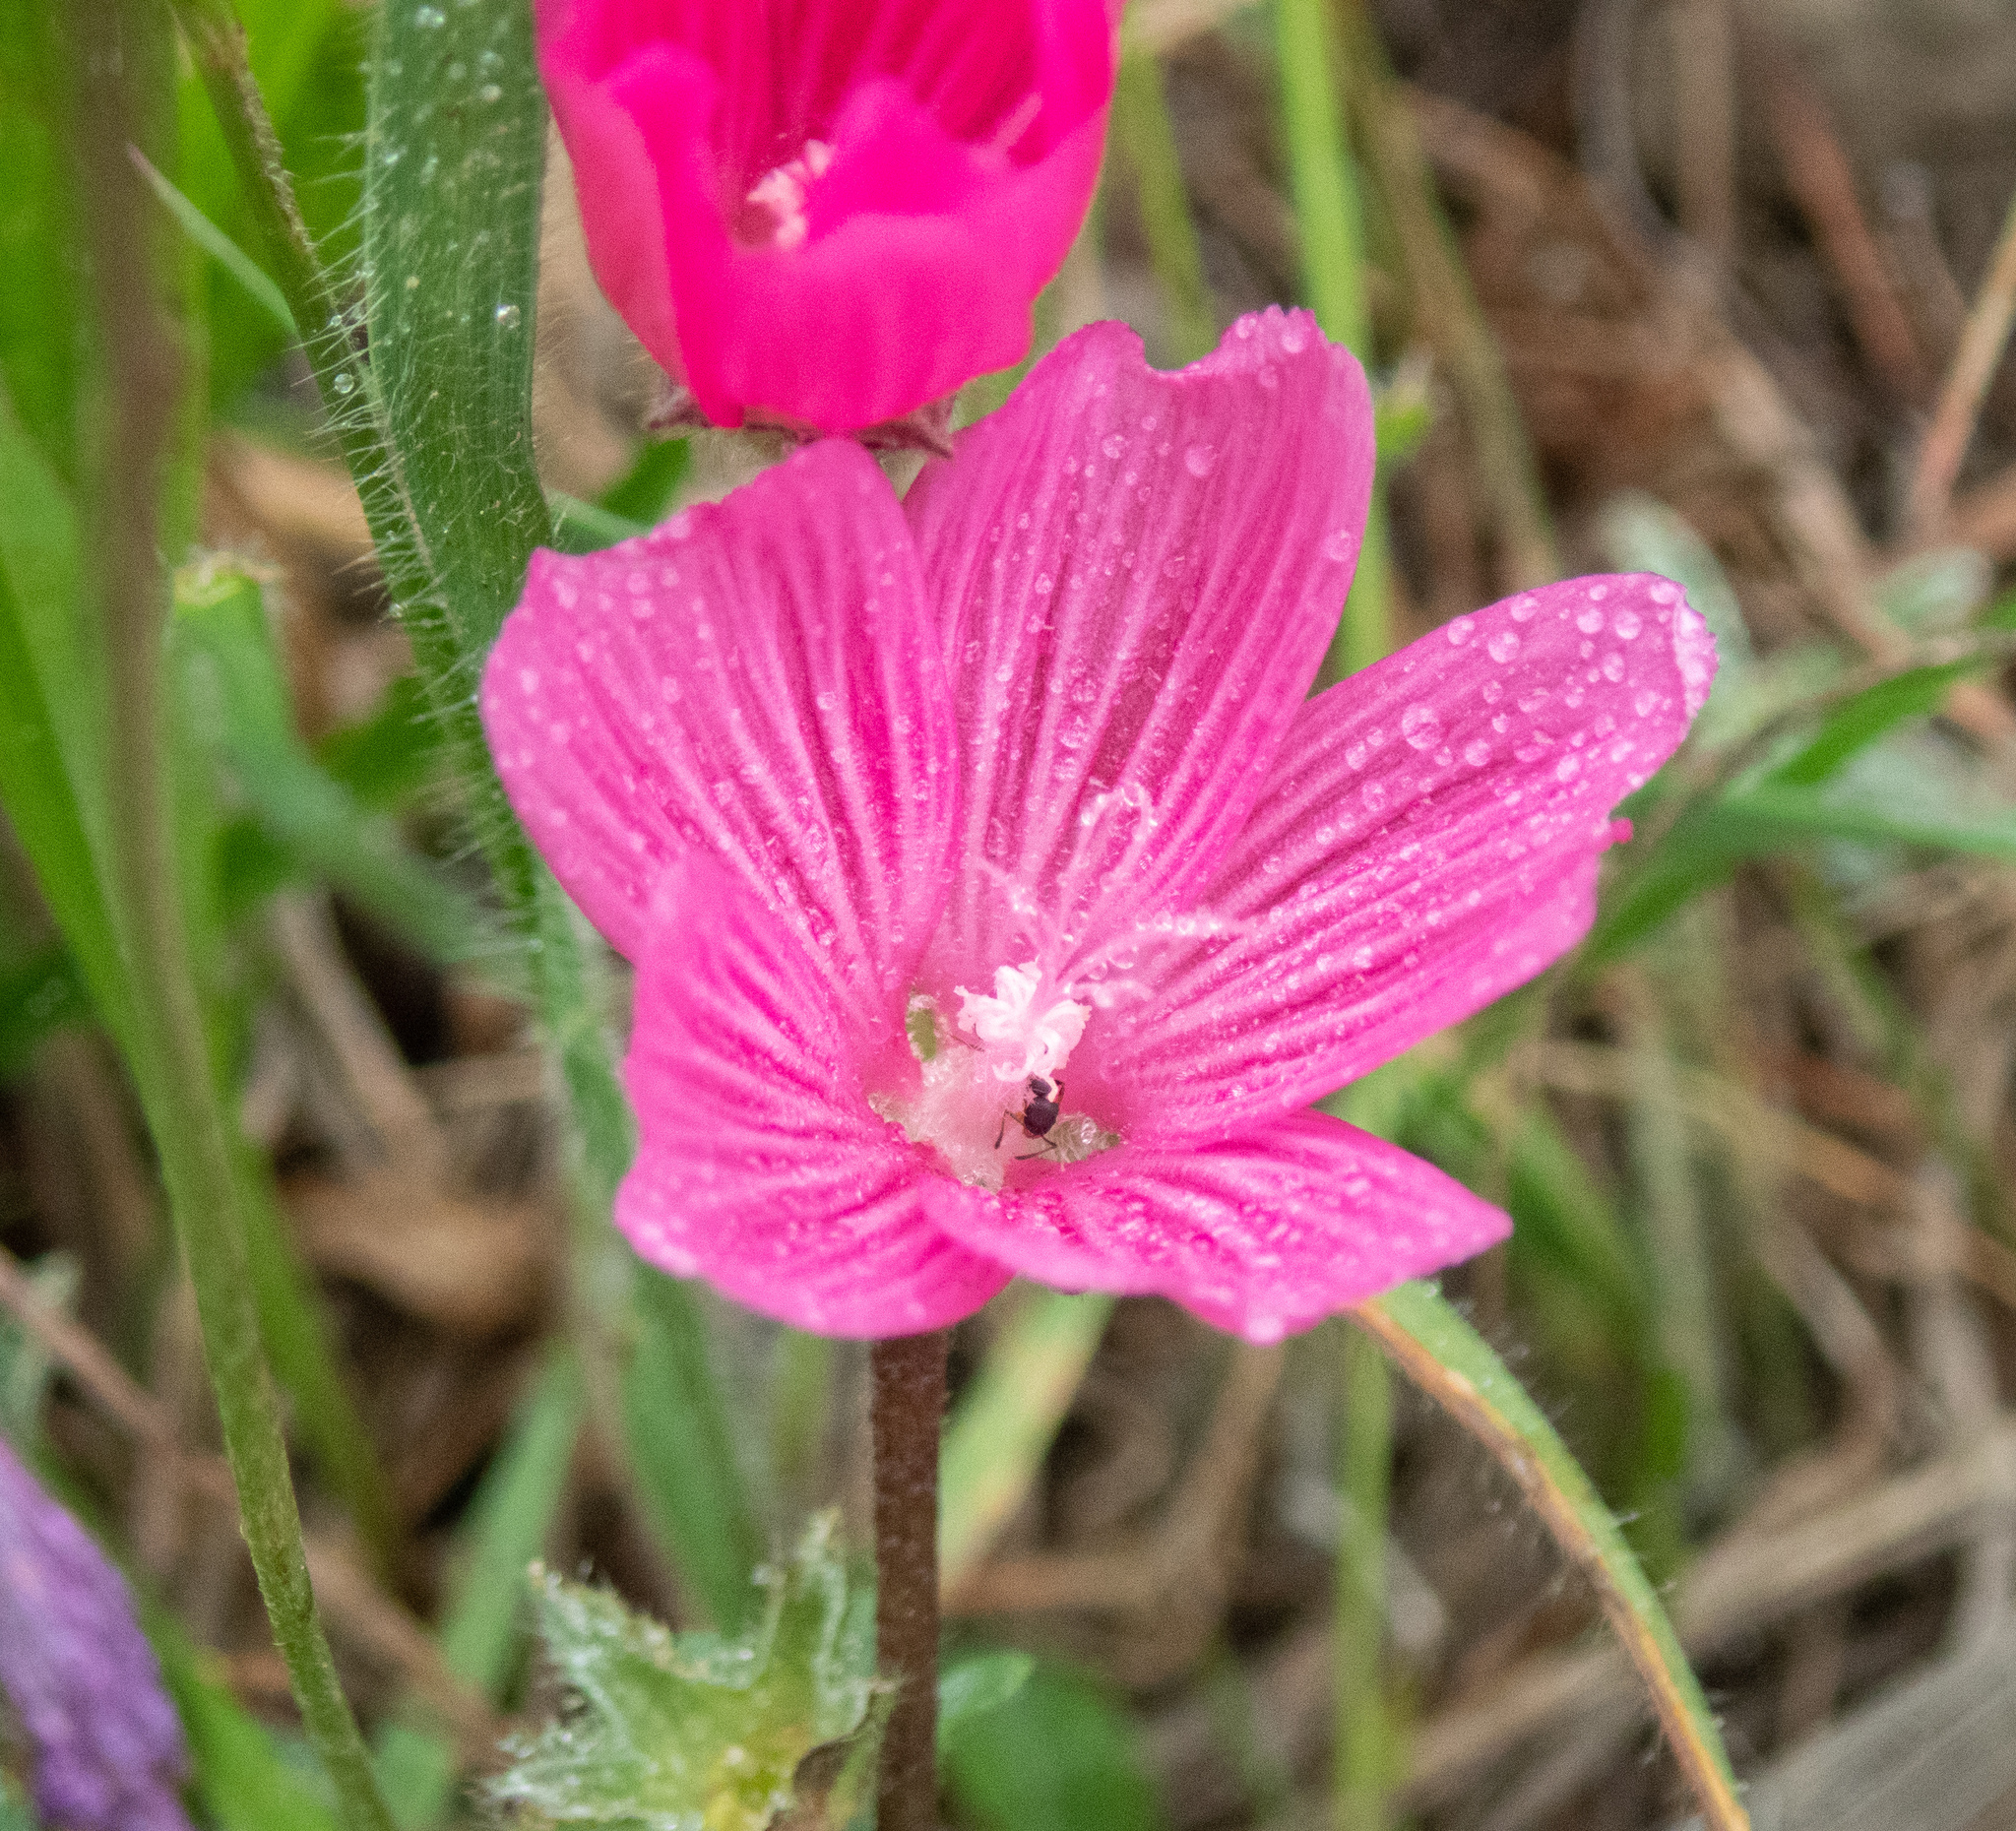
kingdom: Plantae
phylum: Tracheophyta
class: Magnoliopsida
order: Malvales
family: Malvaceae
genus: Sidalcea
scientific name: Sidalcea malviflora
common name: Greek mallow
